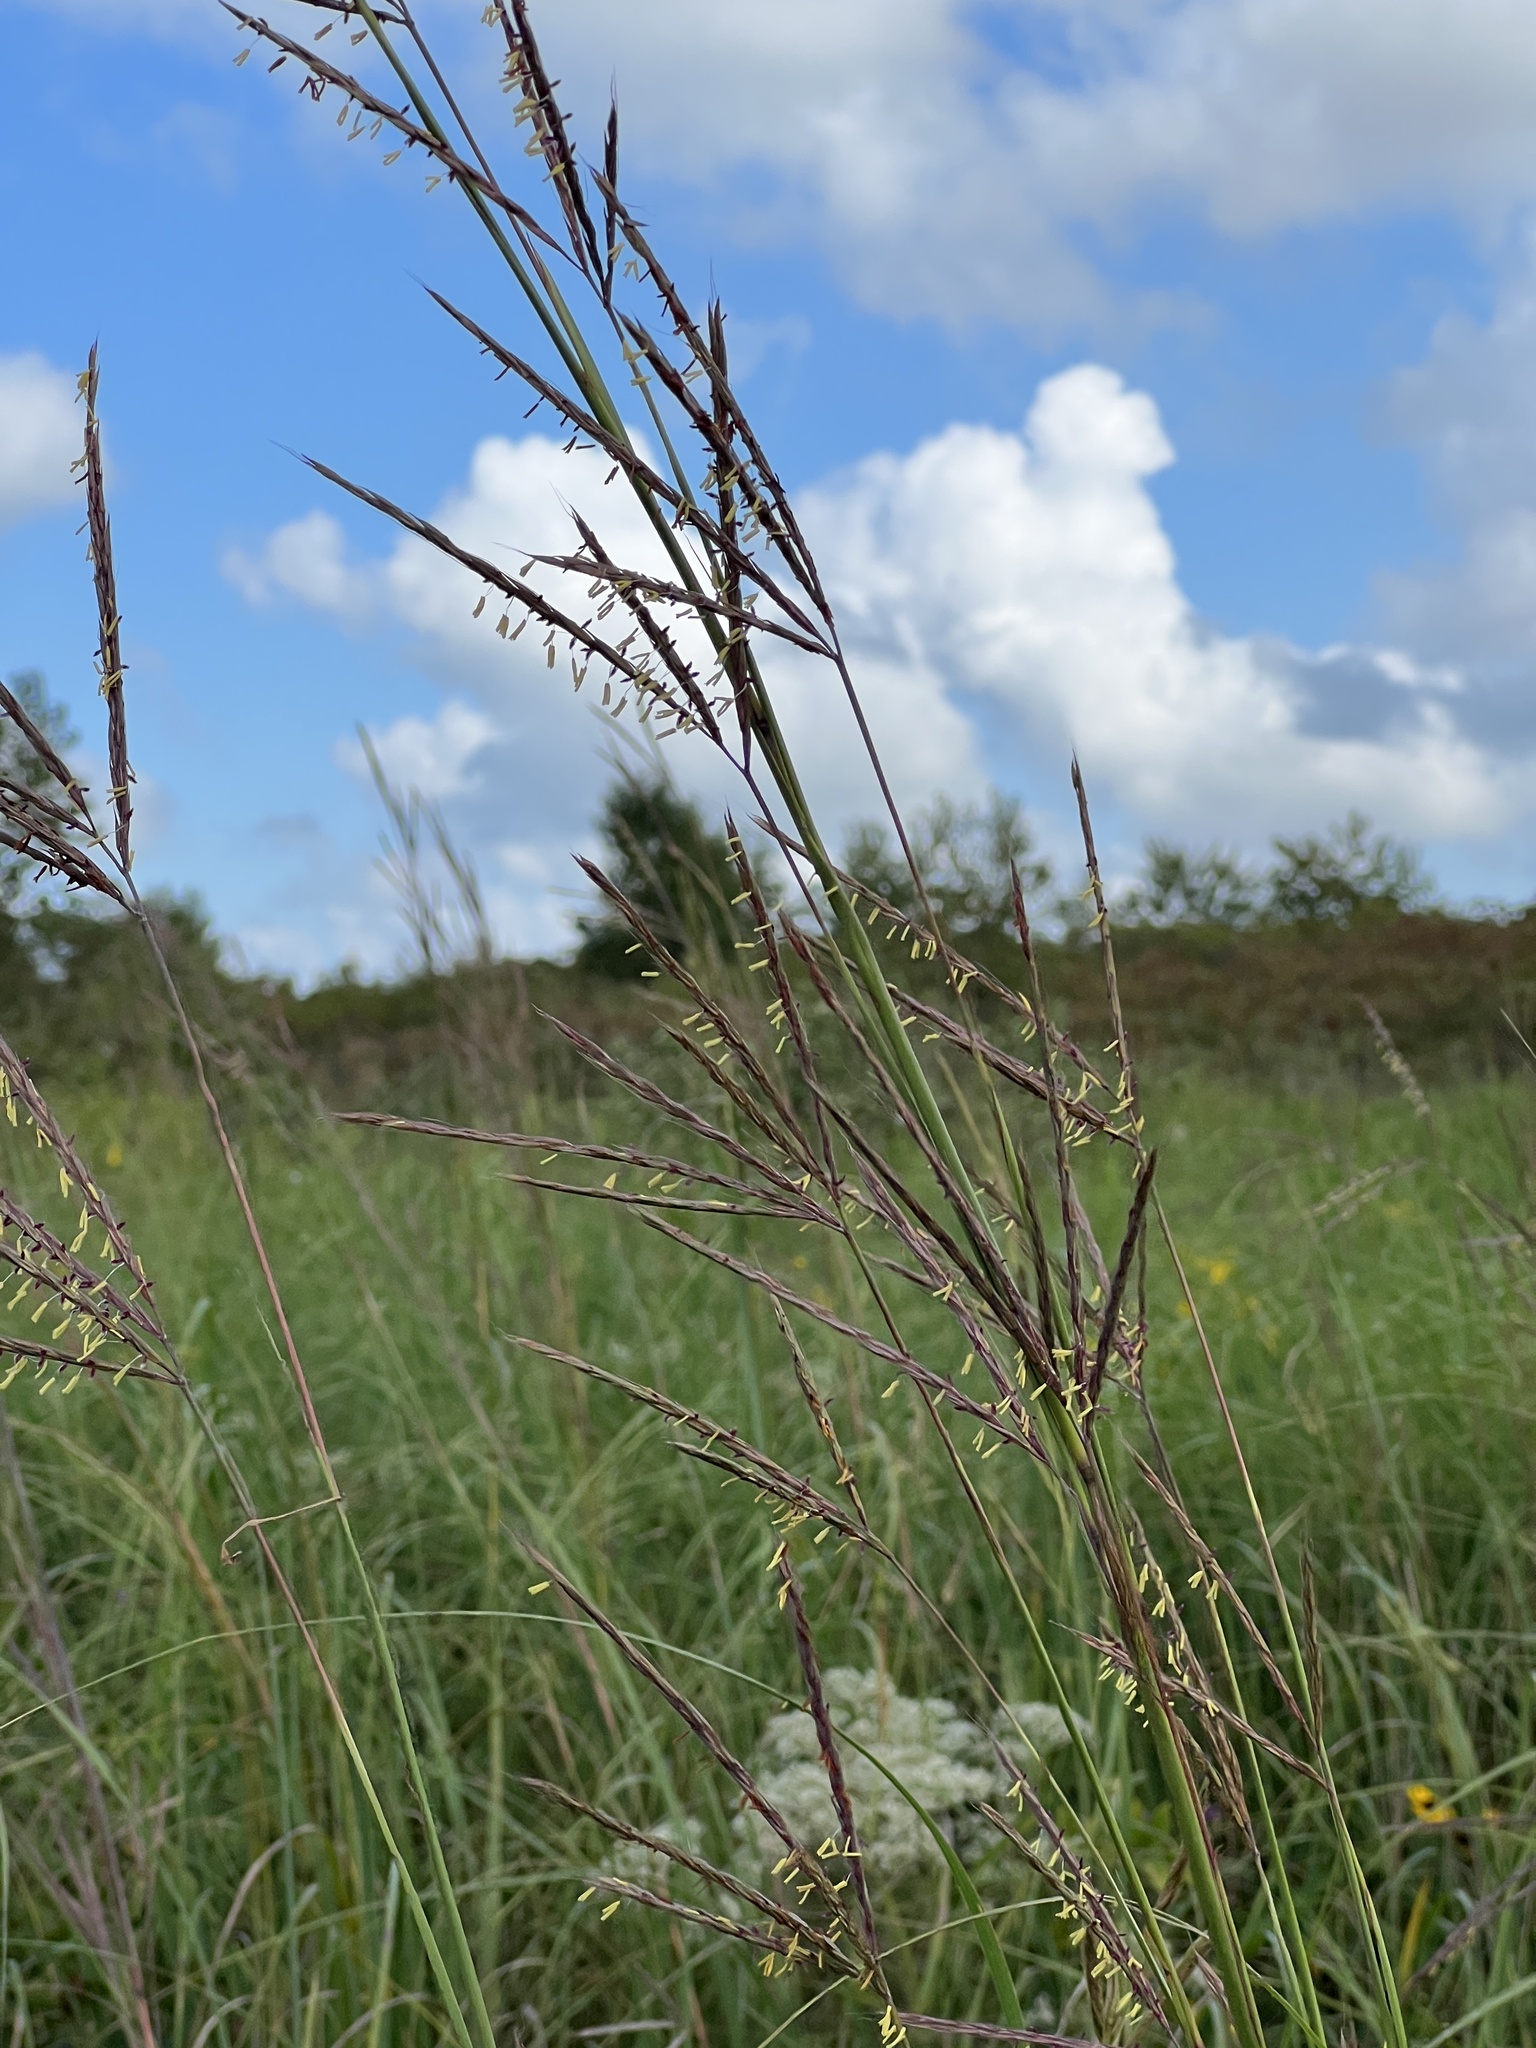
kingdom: Plantae
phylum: Tracheophyta
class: Liliopsida
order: Poales
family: Poaceae
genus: Andropogon
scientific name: Andropogon gerardi
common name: Big bluestem
